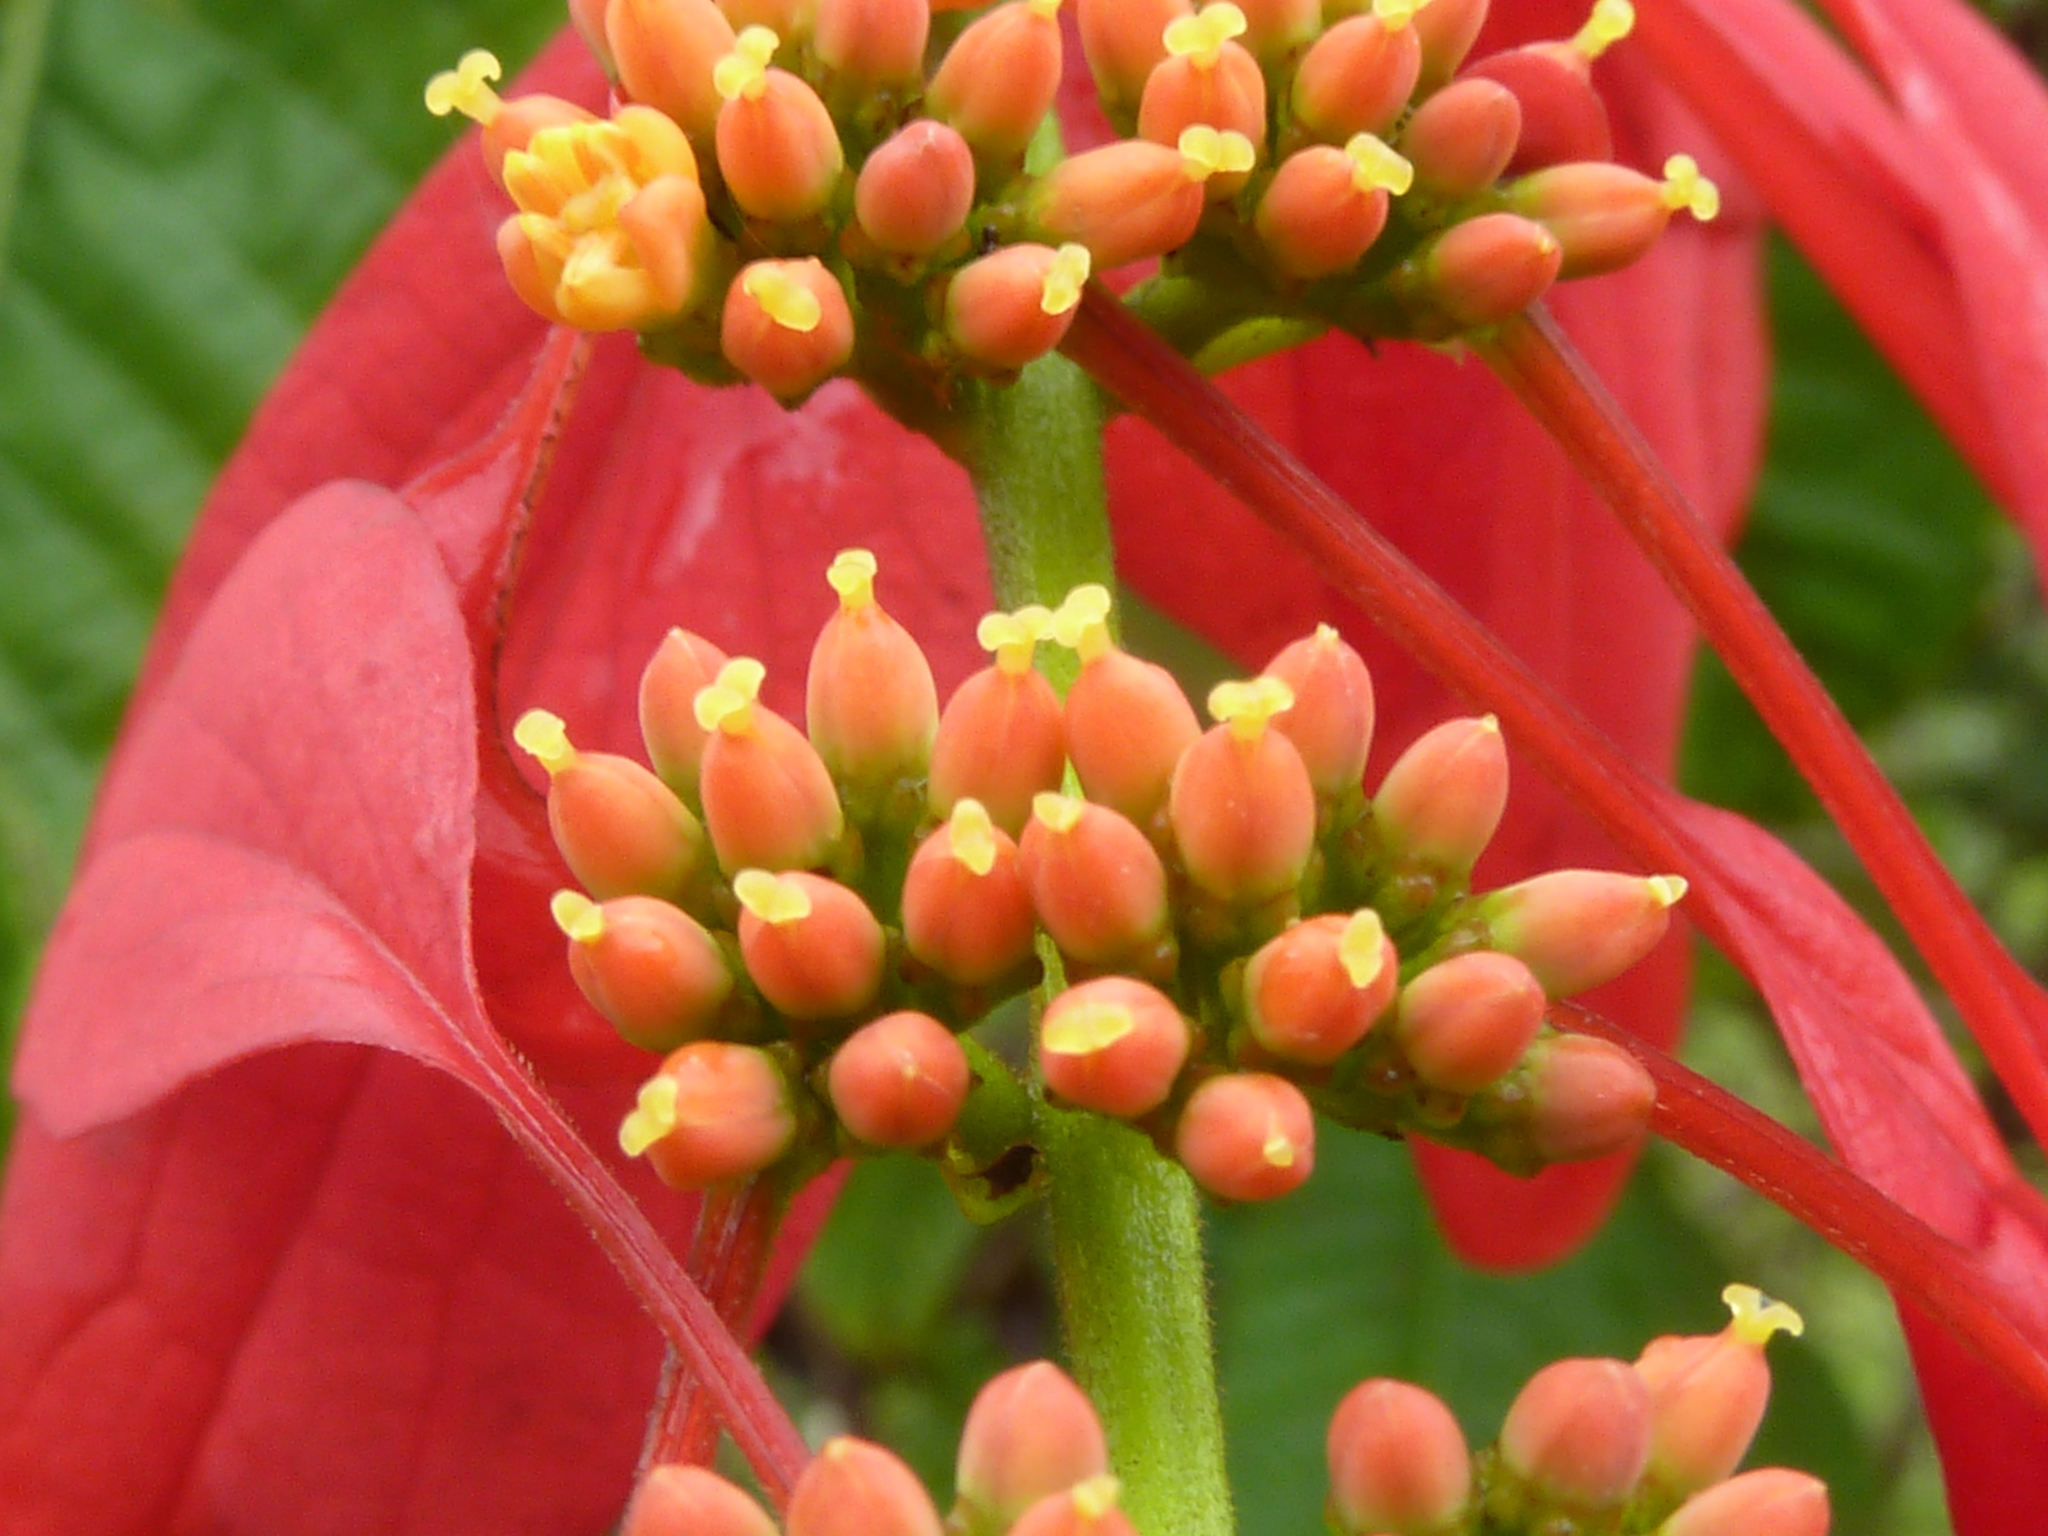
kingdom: Plantae
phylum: Tracheophyta
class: Magnoliopsida
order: Gentianales
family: Rubiaceae
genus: Warszewiczia
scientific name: Warszewiczia coccinea
